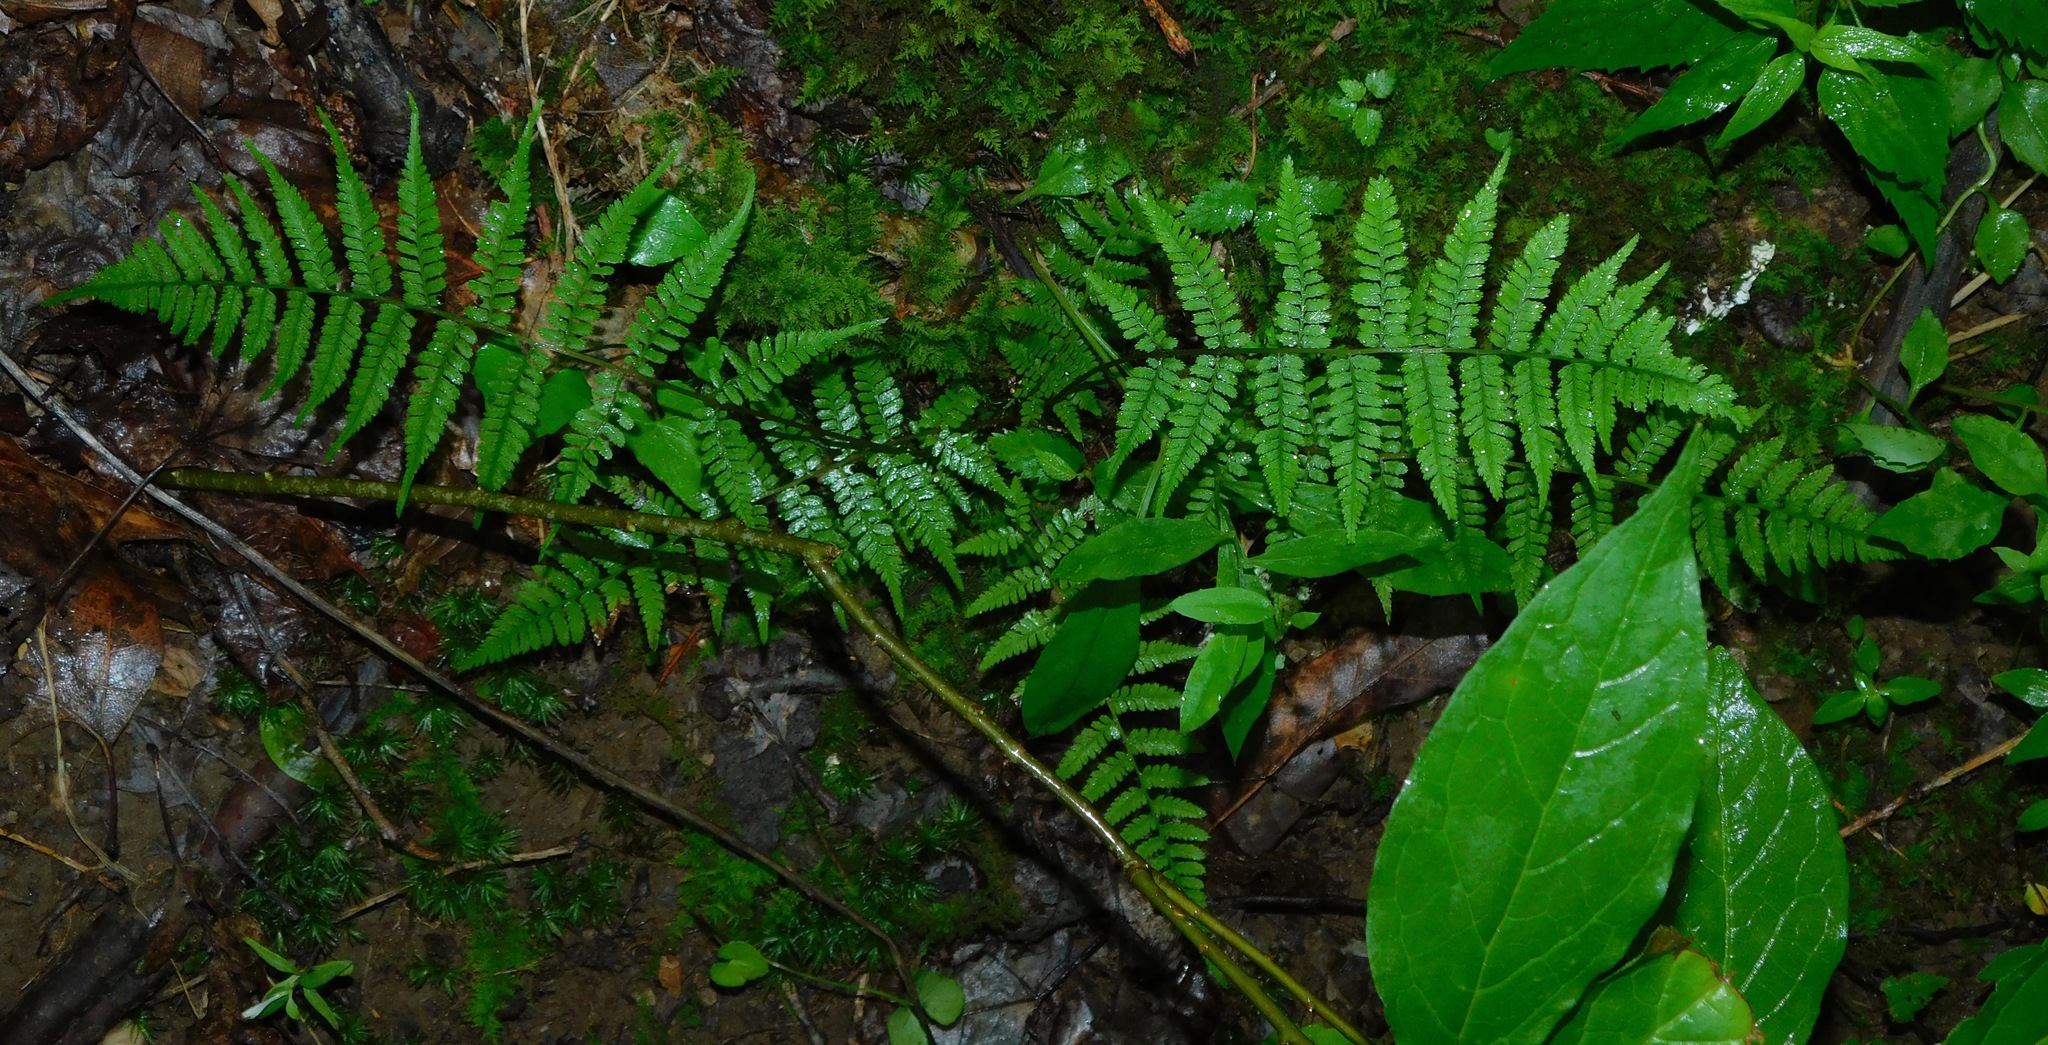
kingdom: Plantae
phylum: Tracheophyta
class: Polypodiopsida
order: Polypodiales
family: Athyriaceae
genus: Athyrium
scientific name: Athyrium asplenioides
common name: Southern lady fern
